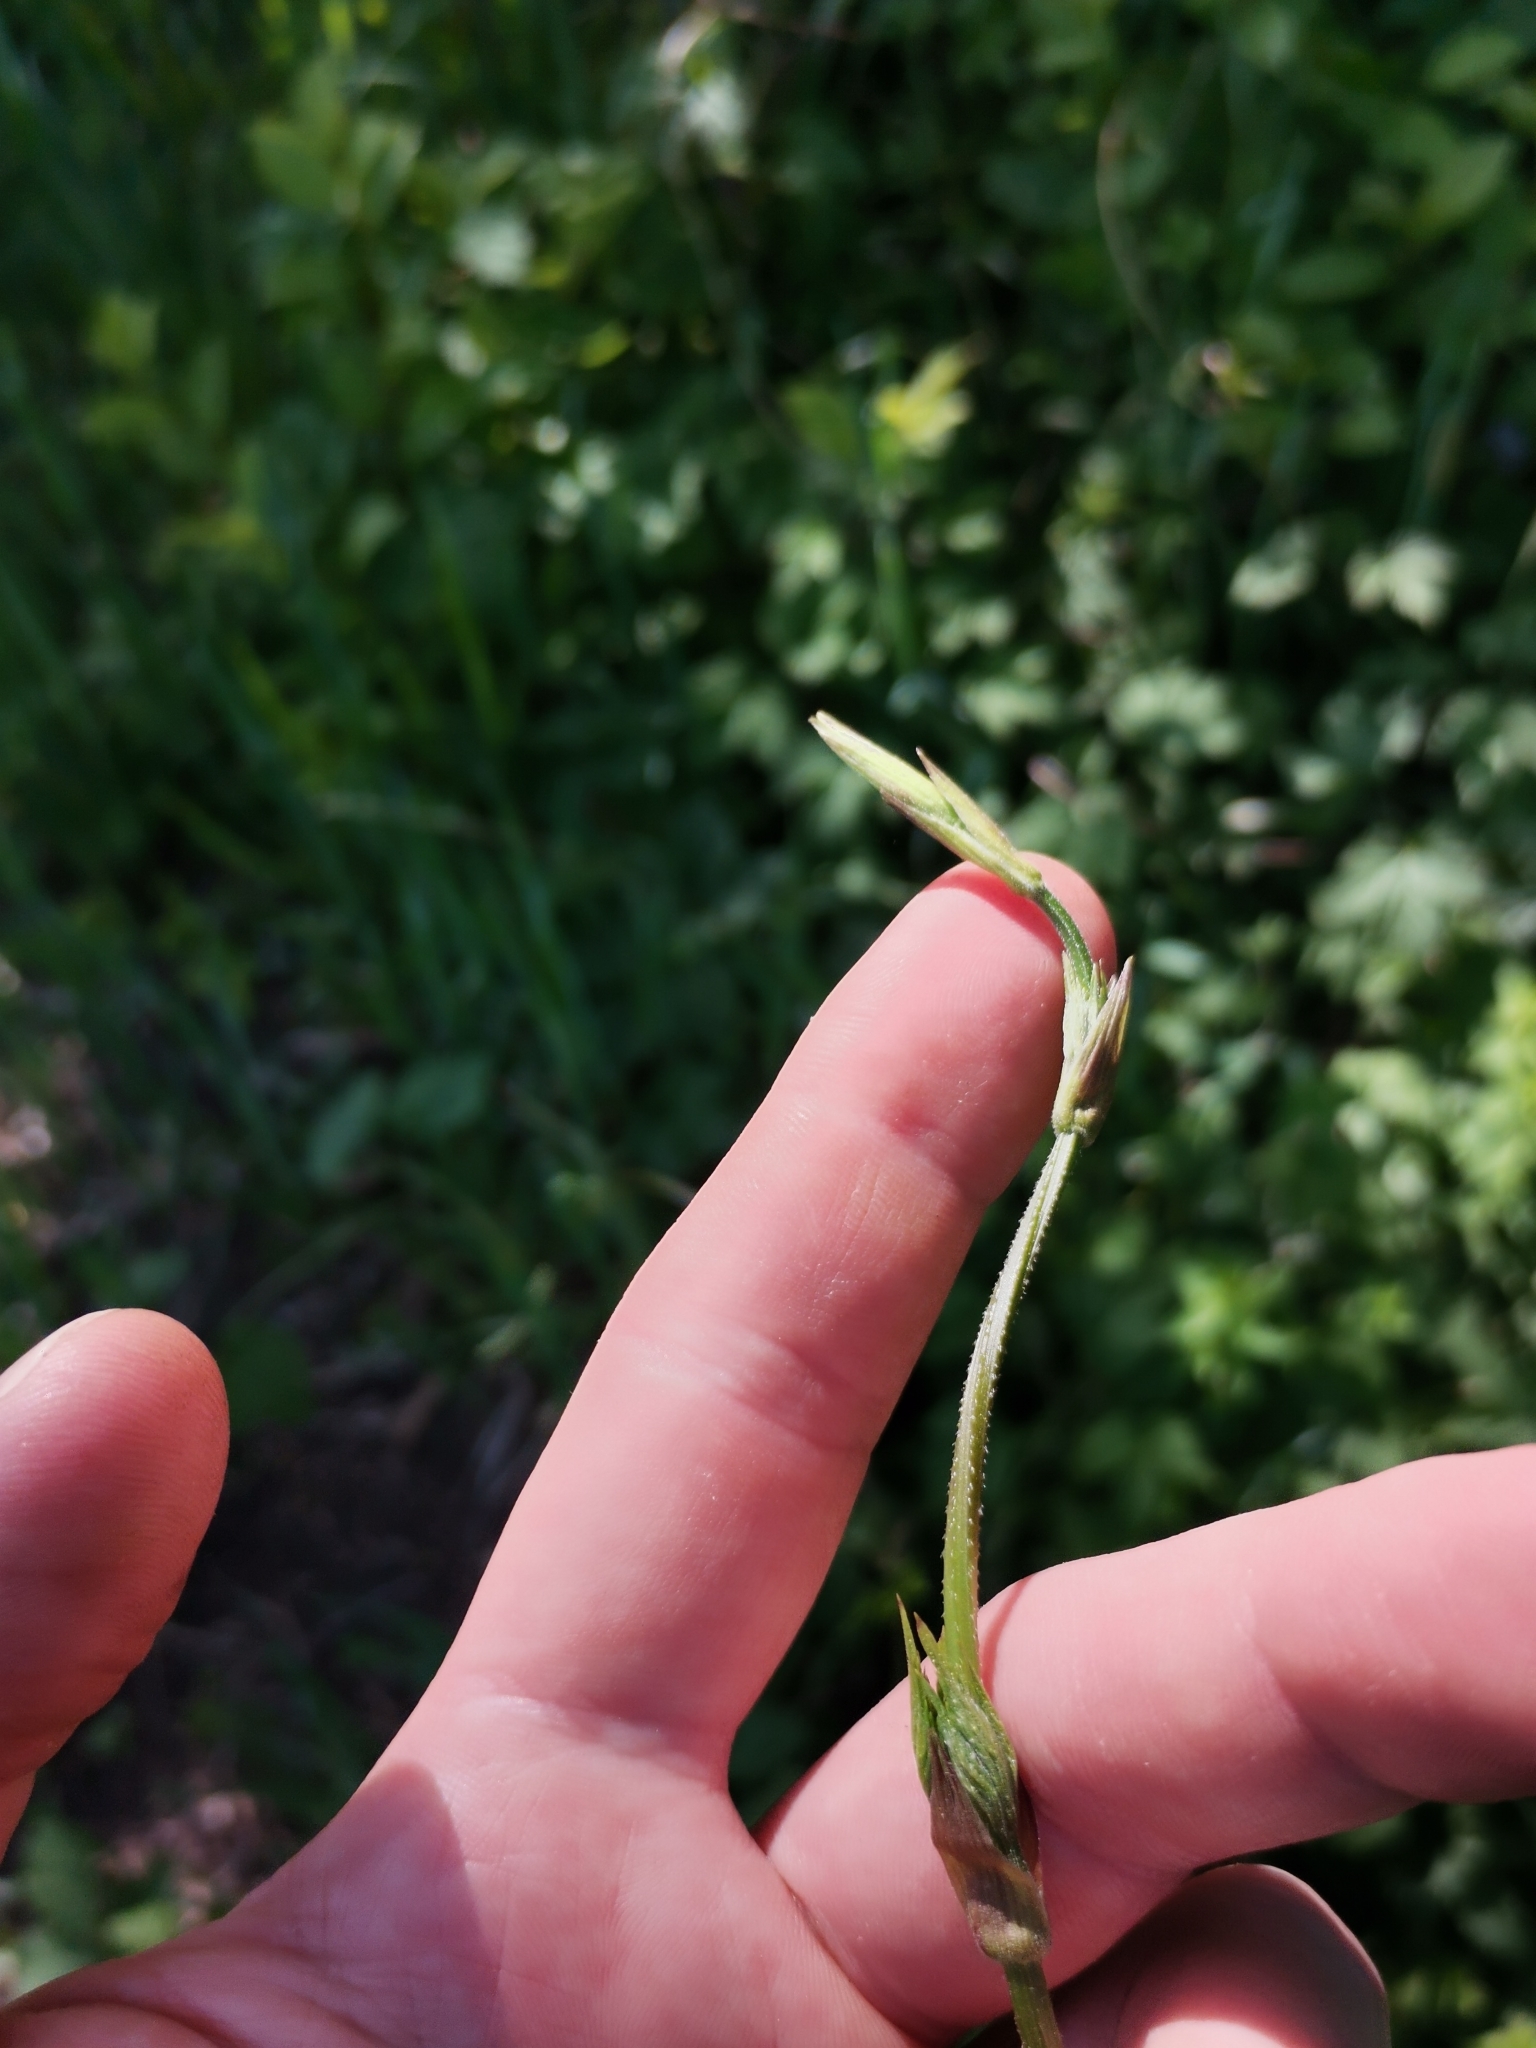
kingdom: Plantae
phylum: Tracheophyta
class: Magnoliopsida
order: Rosales
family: Cannabaceae
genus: Humulus
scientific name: Humulus lupulus
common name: Hop
